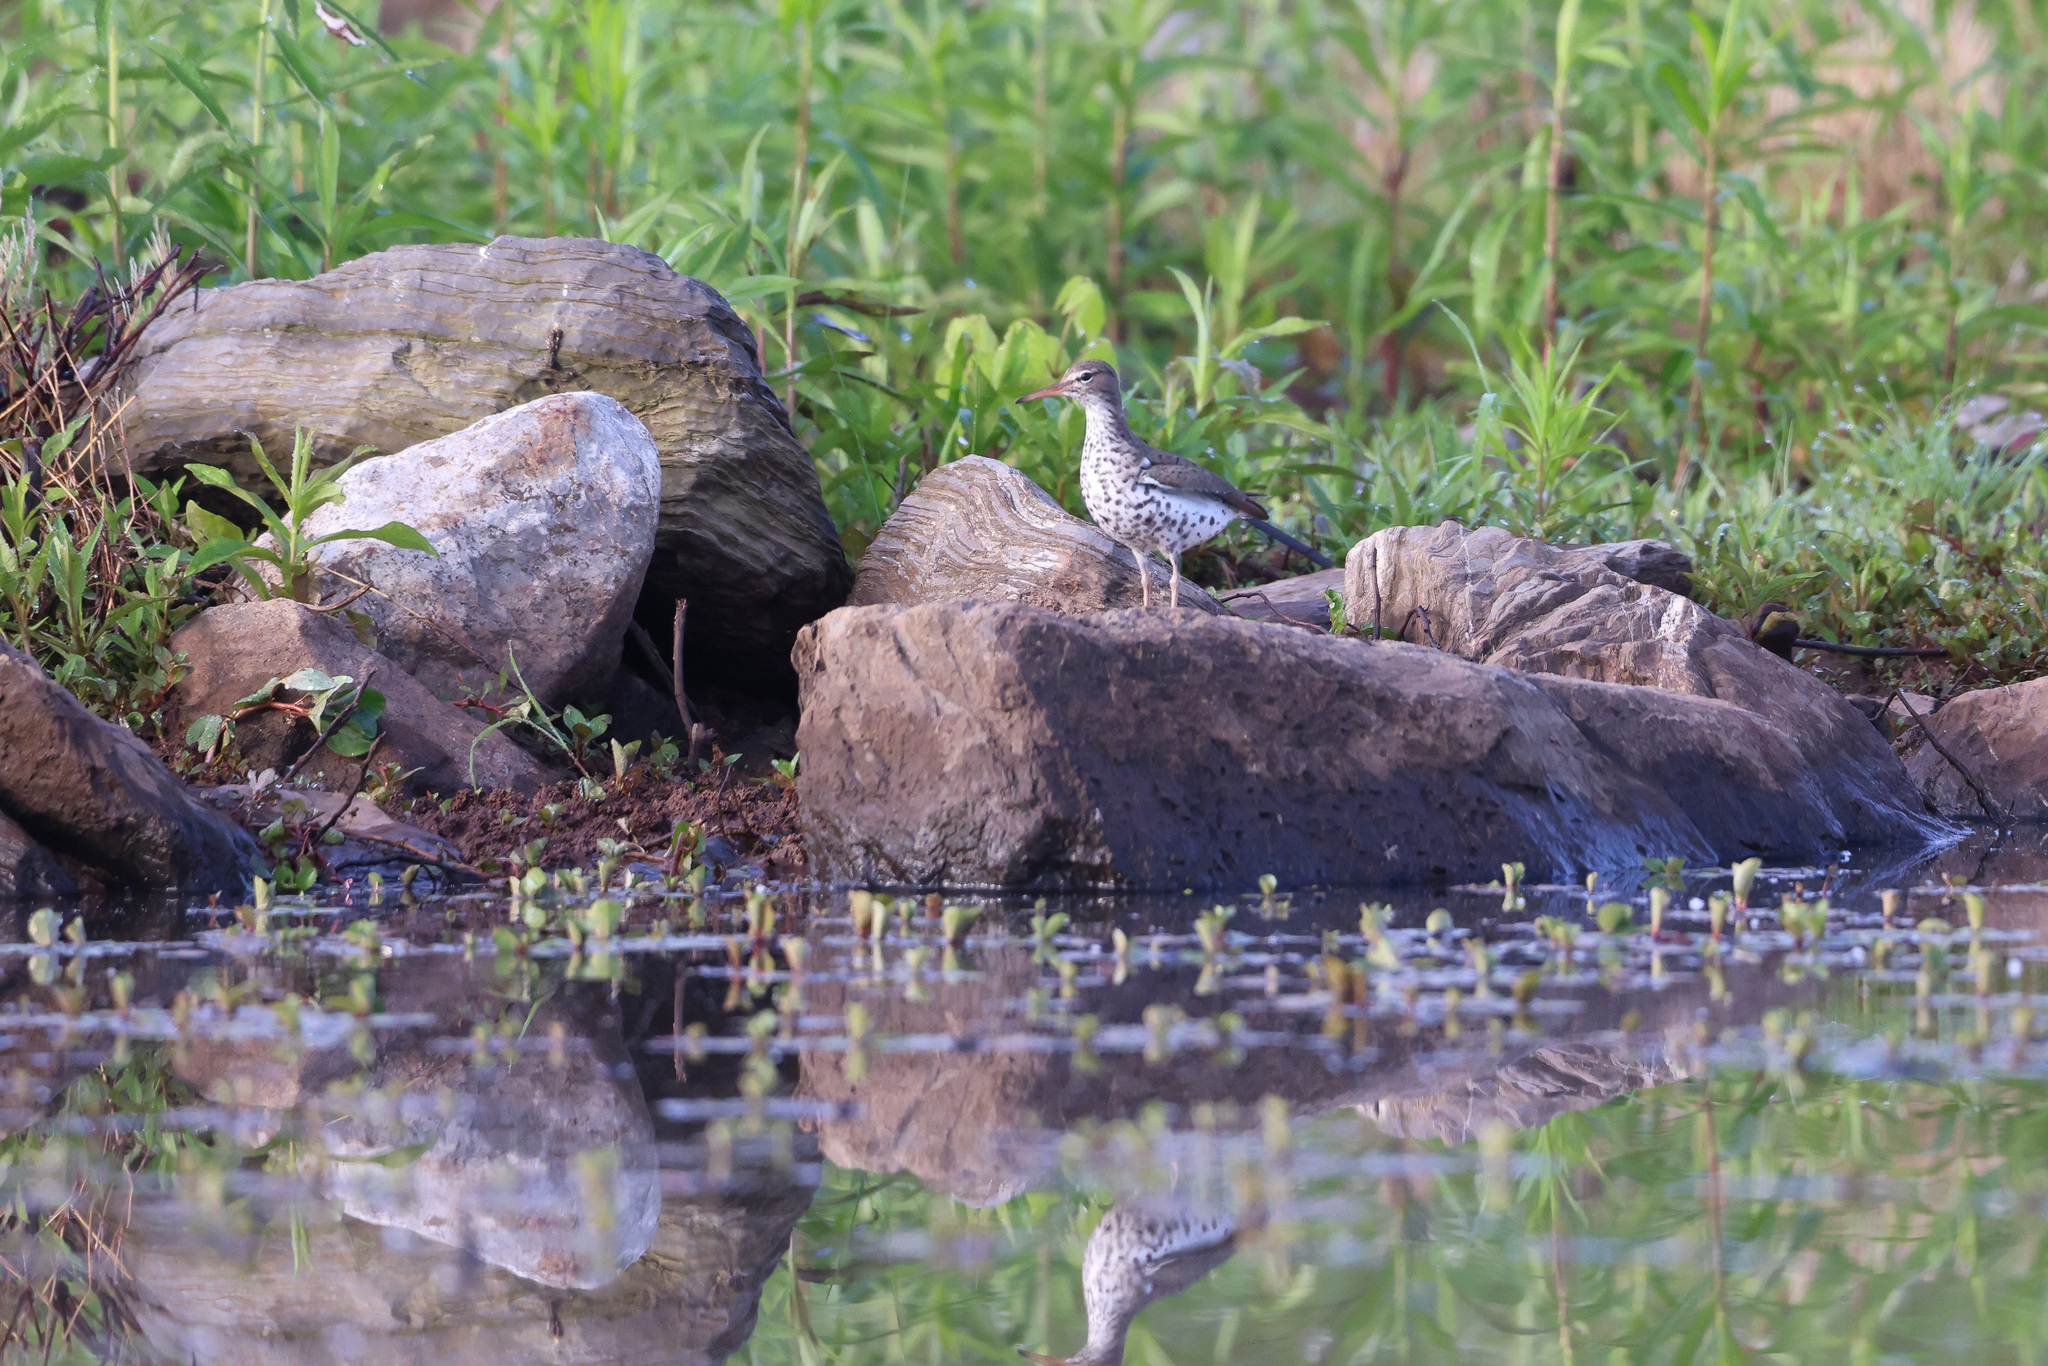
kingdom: Animalia
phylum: Chordata
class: Aves
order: Charadriiformes
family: Scolopacidae
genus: Actitis
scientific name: Actitis macularius
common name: Spotted sandpiper
